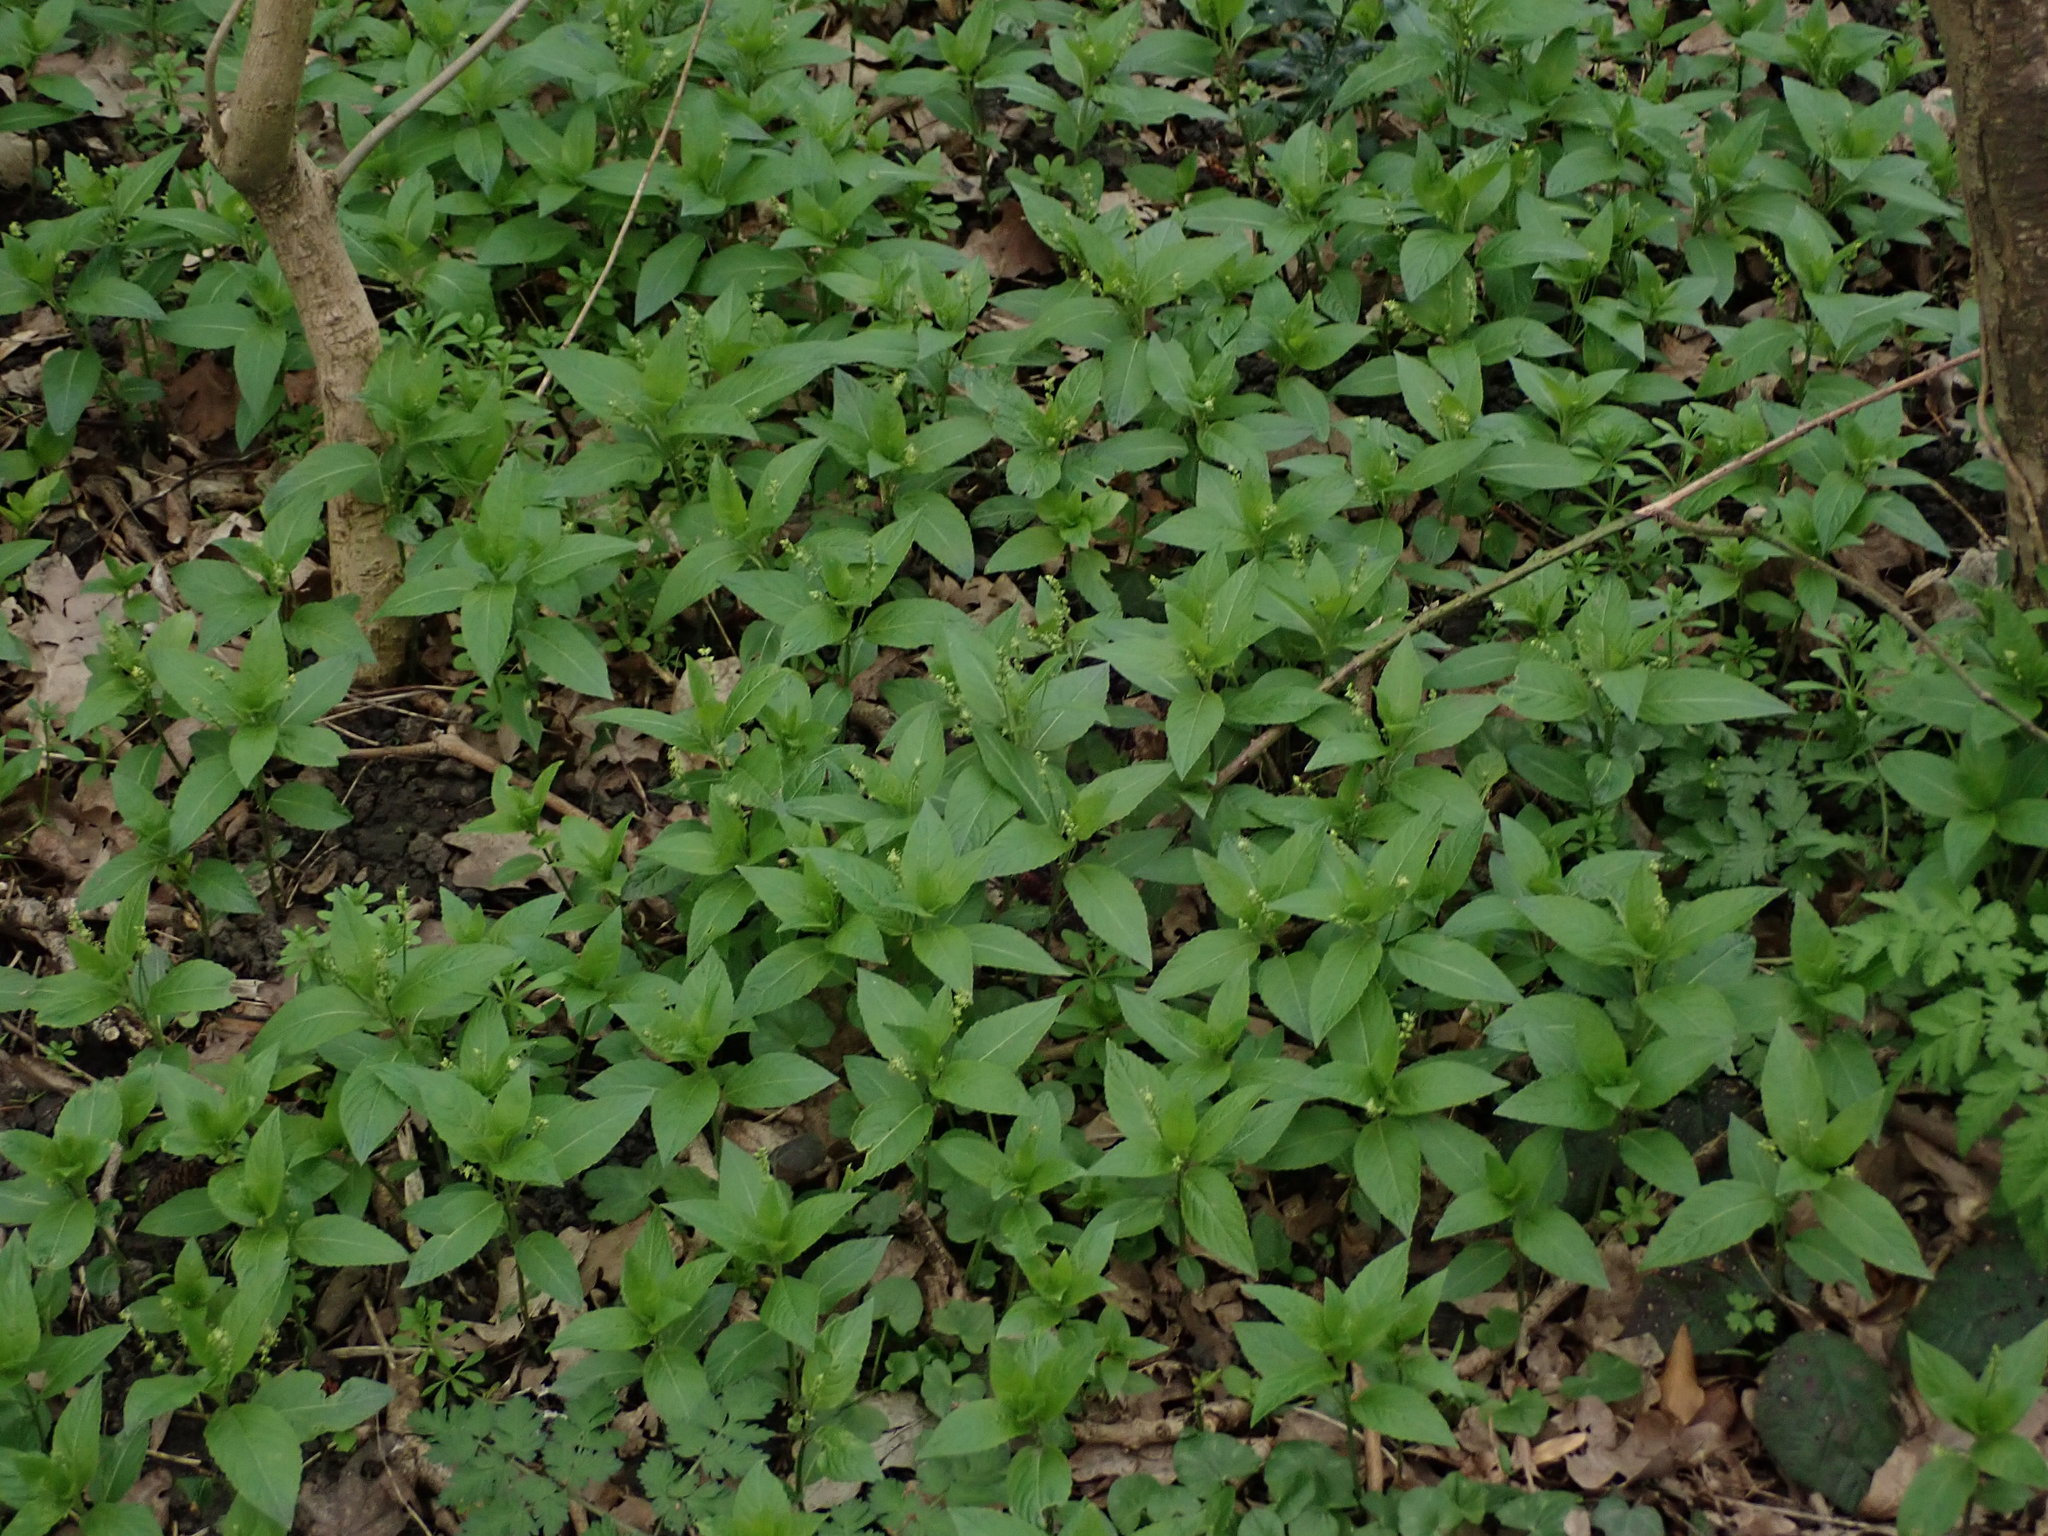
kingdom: Plantae
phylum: Tracheophyta
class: Magnoliopsida
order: Malpighiales
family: Euphorbiaceae
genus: Mercurialis
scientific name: Mercurialis perennis
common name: Dog mercury
